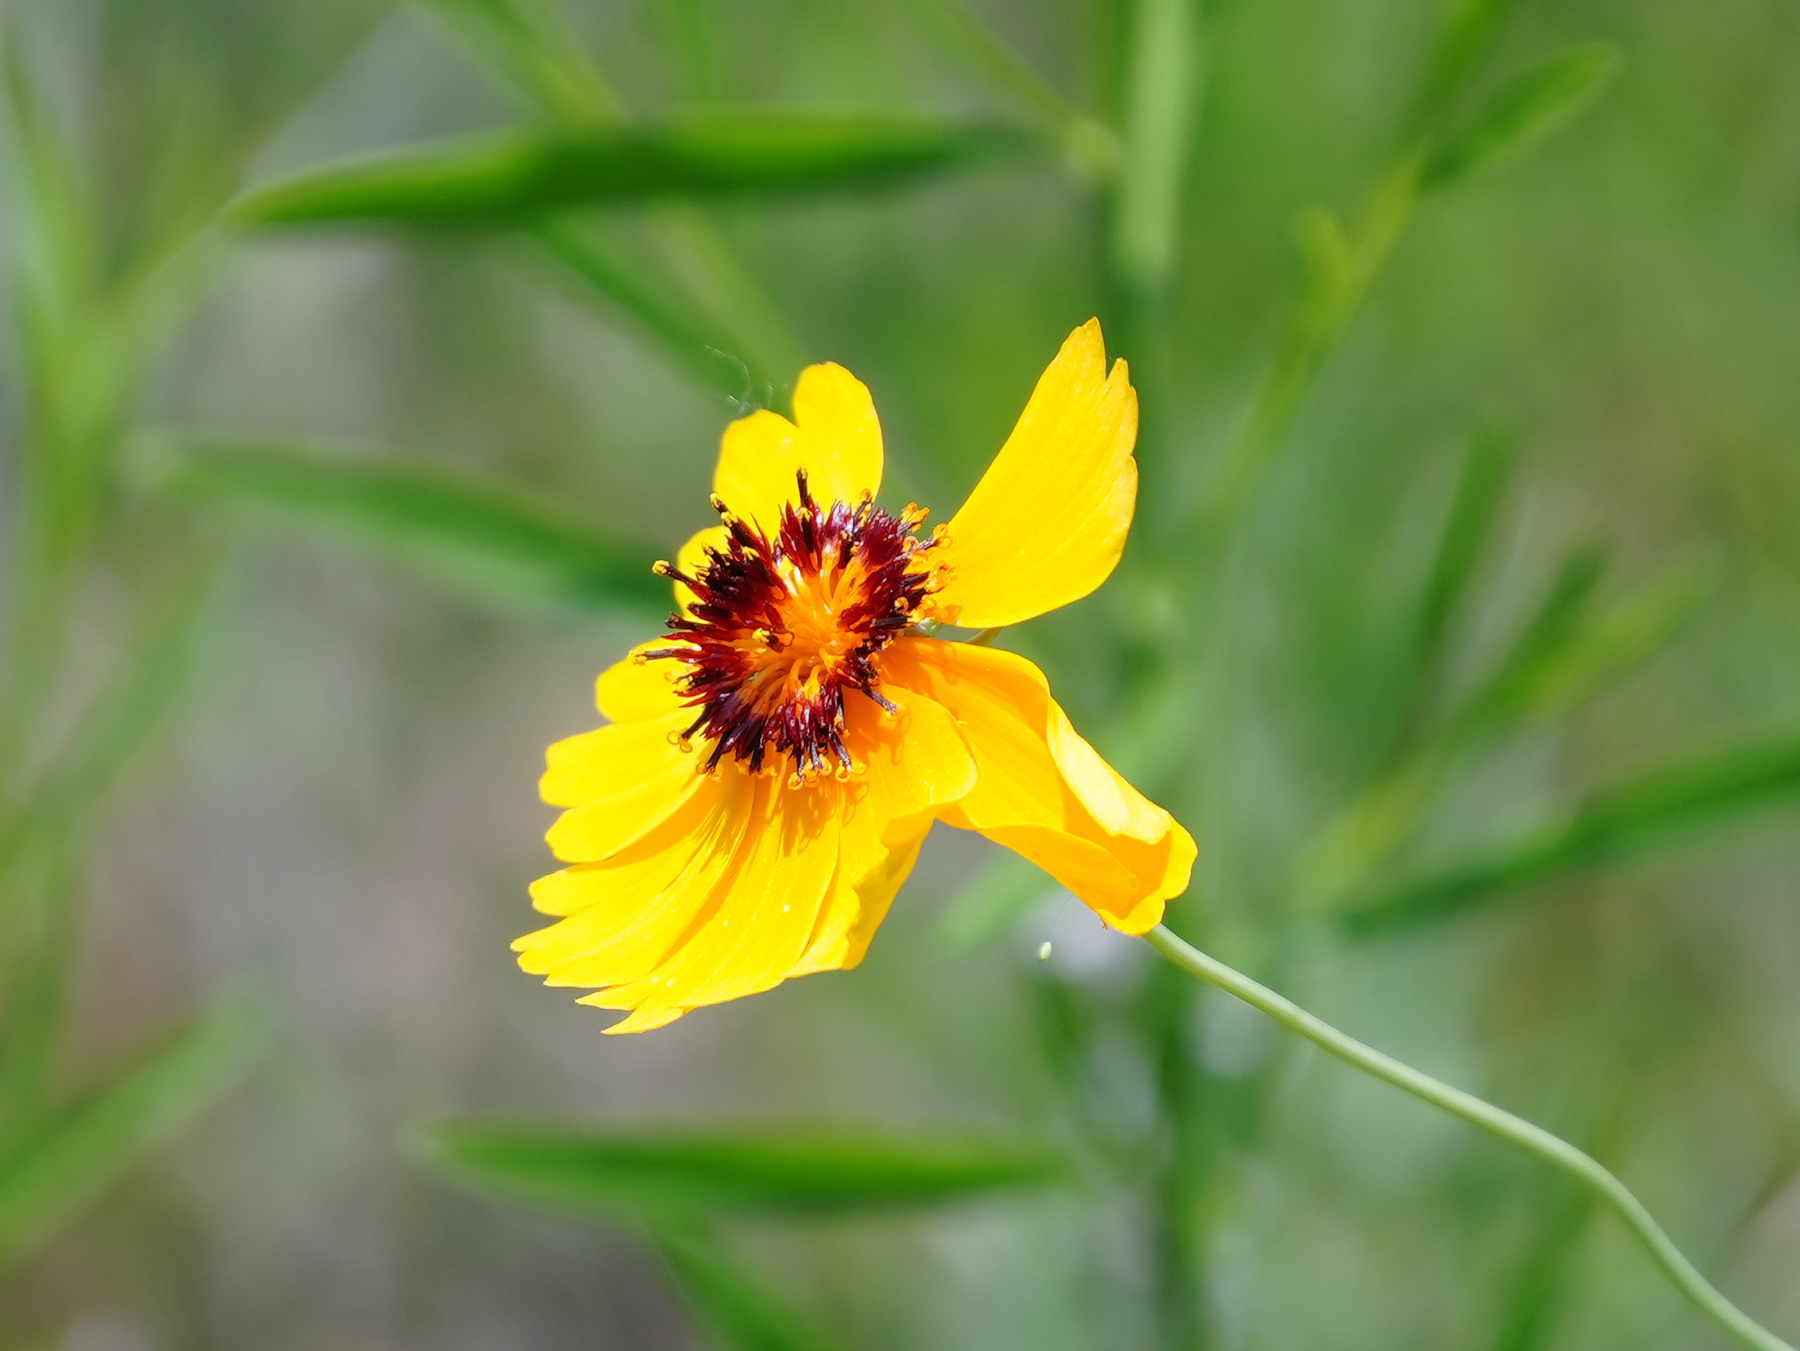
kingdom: Plantae
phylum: Tracheophyta
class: Magnoliopsida
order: Asterales
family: Asteraceae
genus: Thelesperma
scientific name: Thelesperma filifolium
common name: Stiff greenthread
